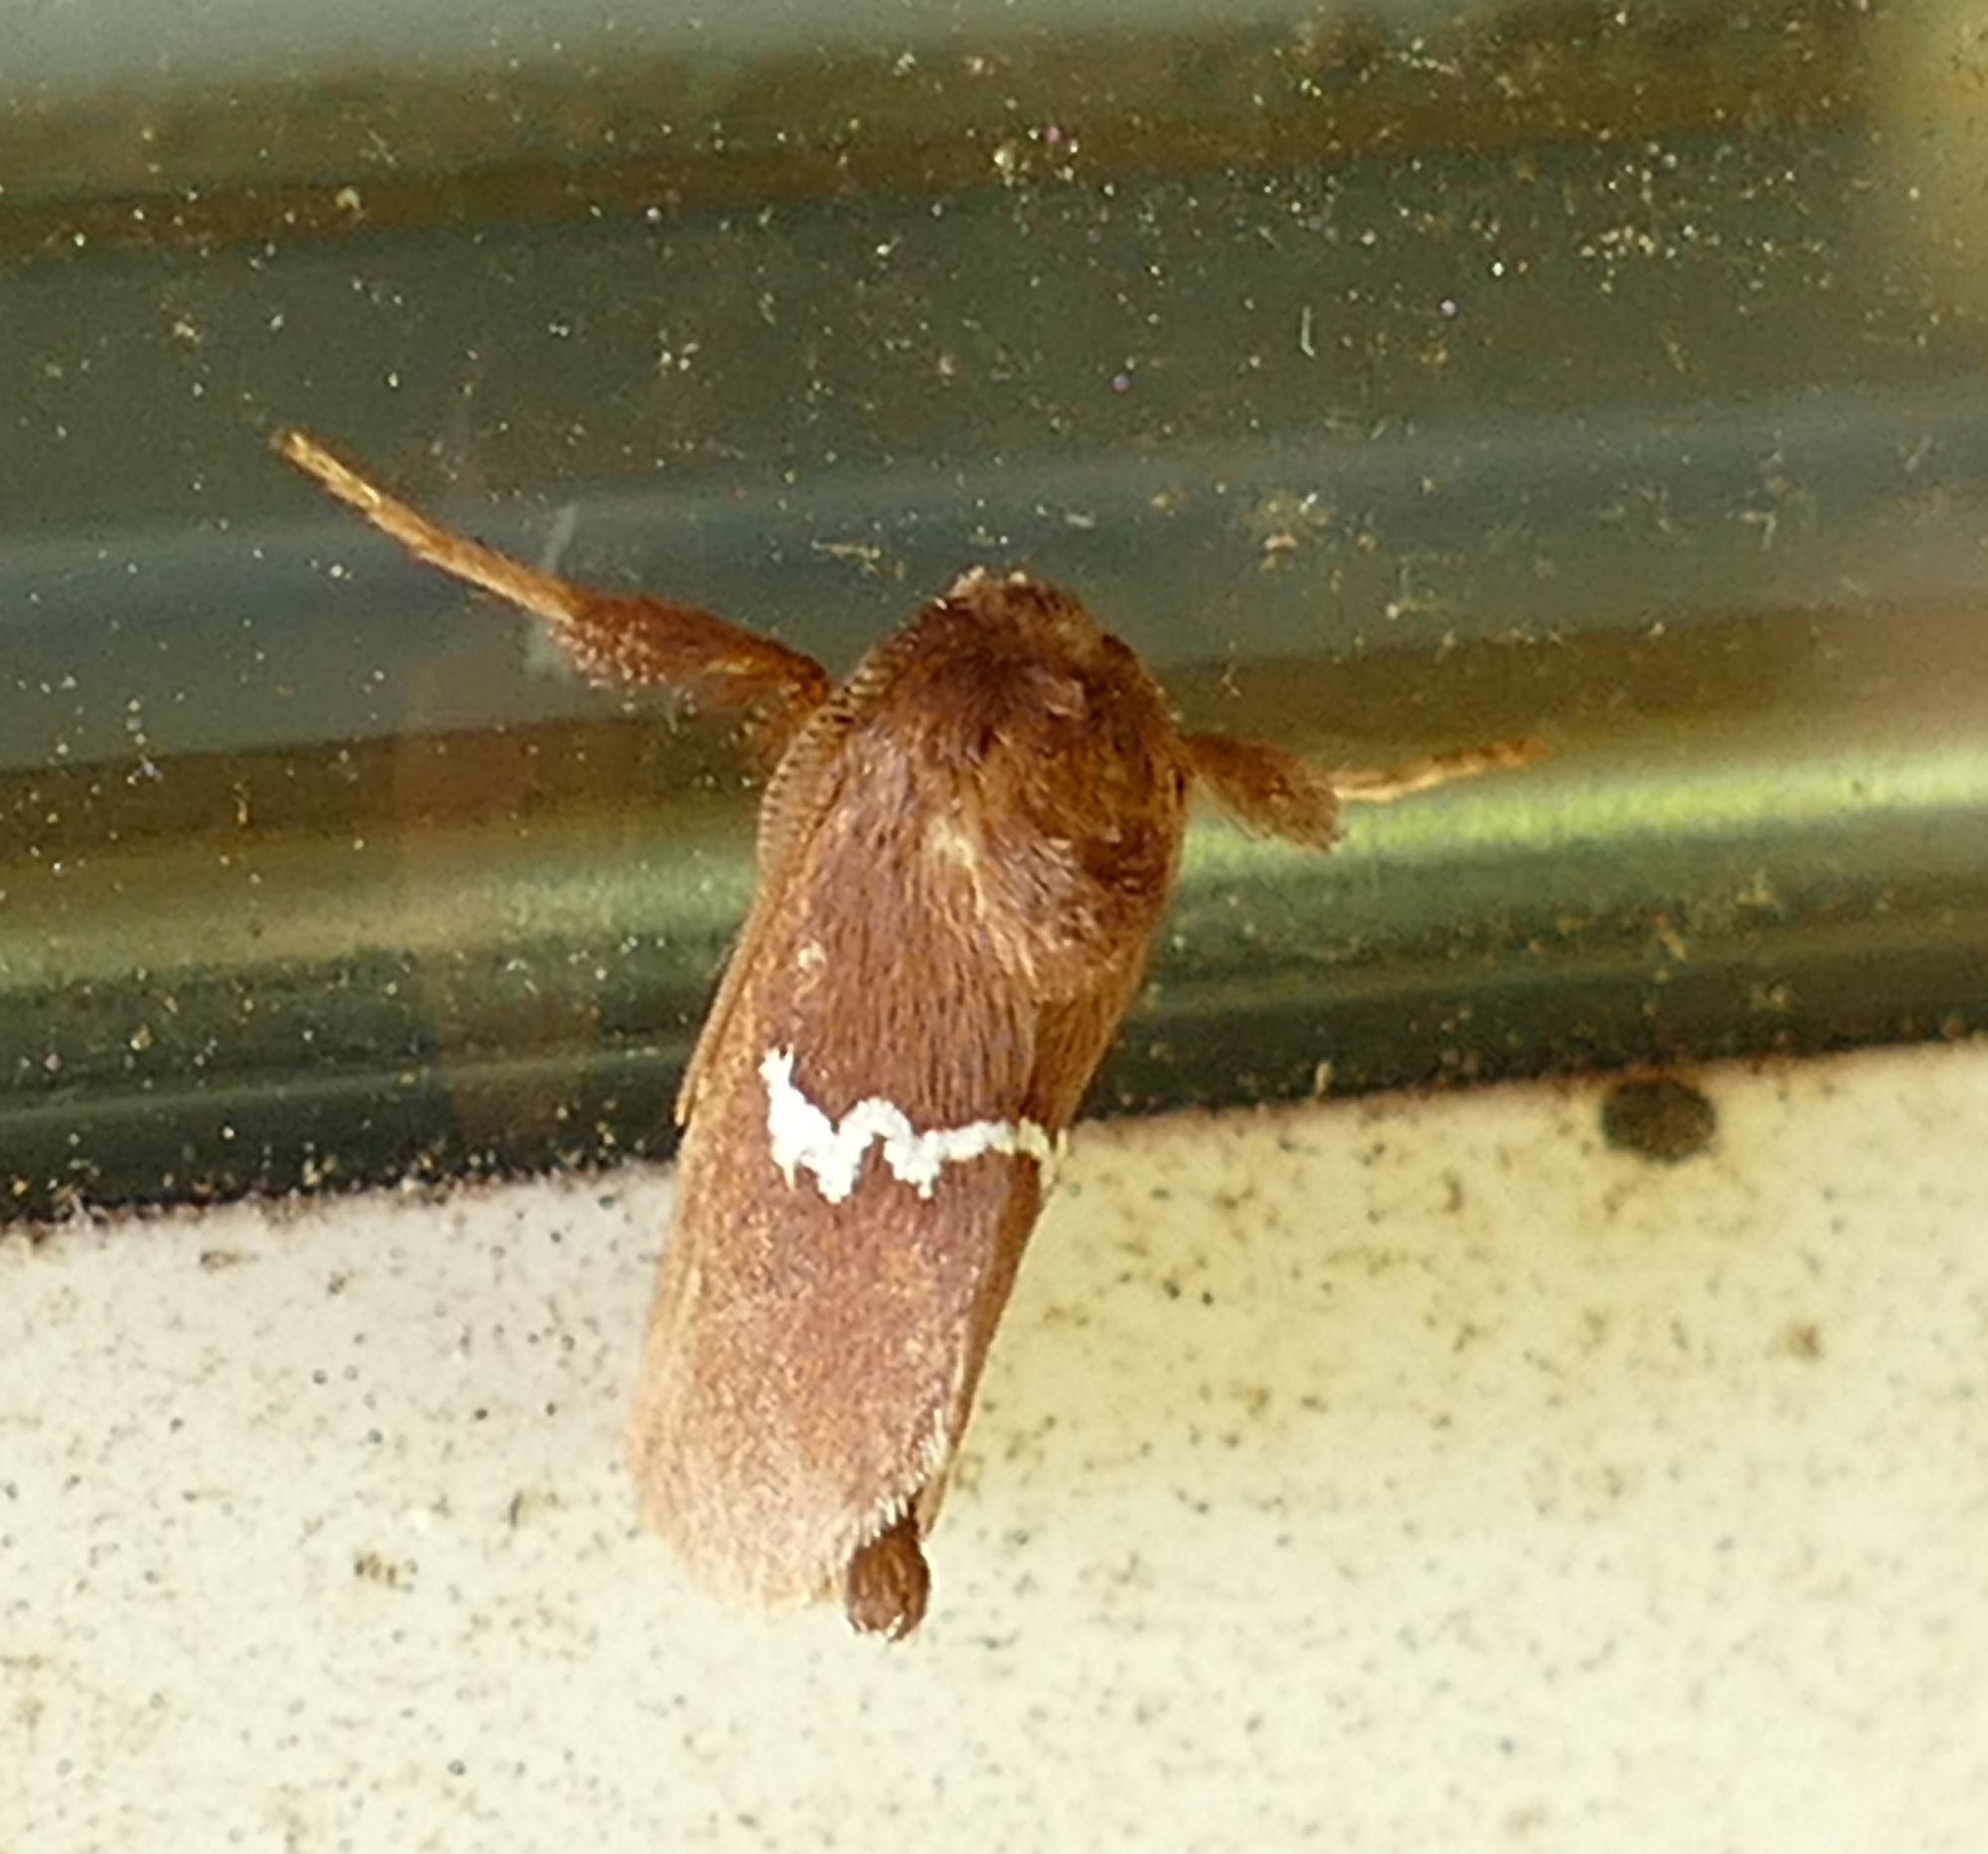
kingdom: Animalia
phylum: Arthropoda
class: Insecta
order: Lepidoptera
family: Limacodidae
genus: Monoleuca
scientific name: Monoleuca semifascia
